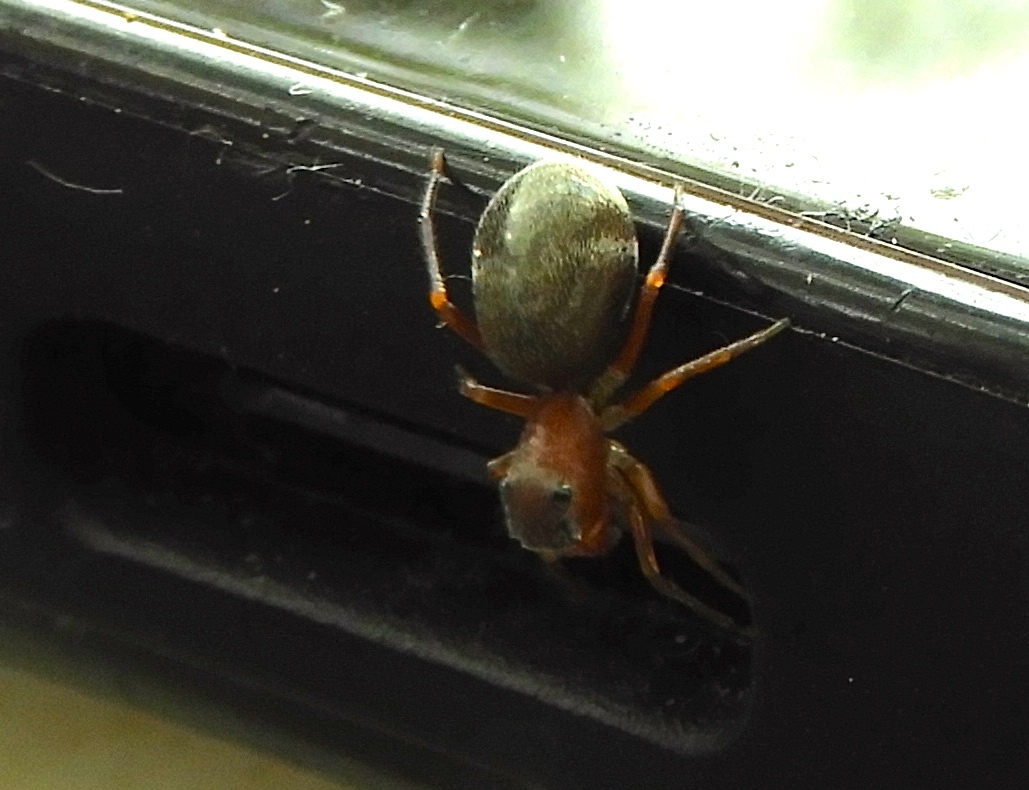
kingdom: Animalia
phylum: Arthropoda
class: Arachnida
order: Araneae
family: Salticidae
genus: Sarinda
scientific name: Sarinda
